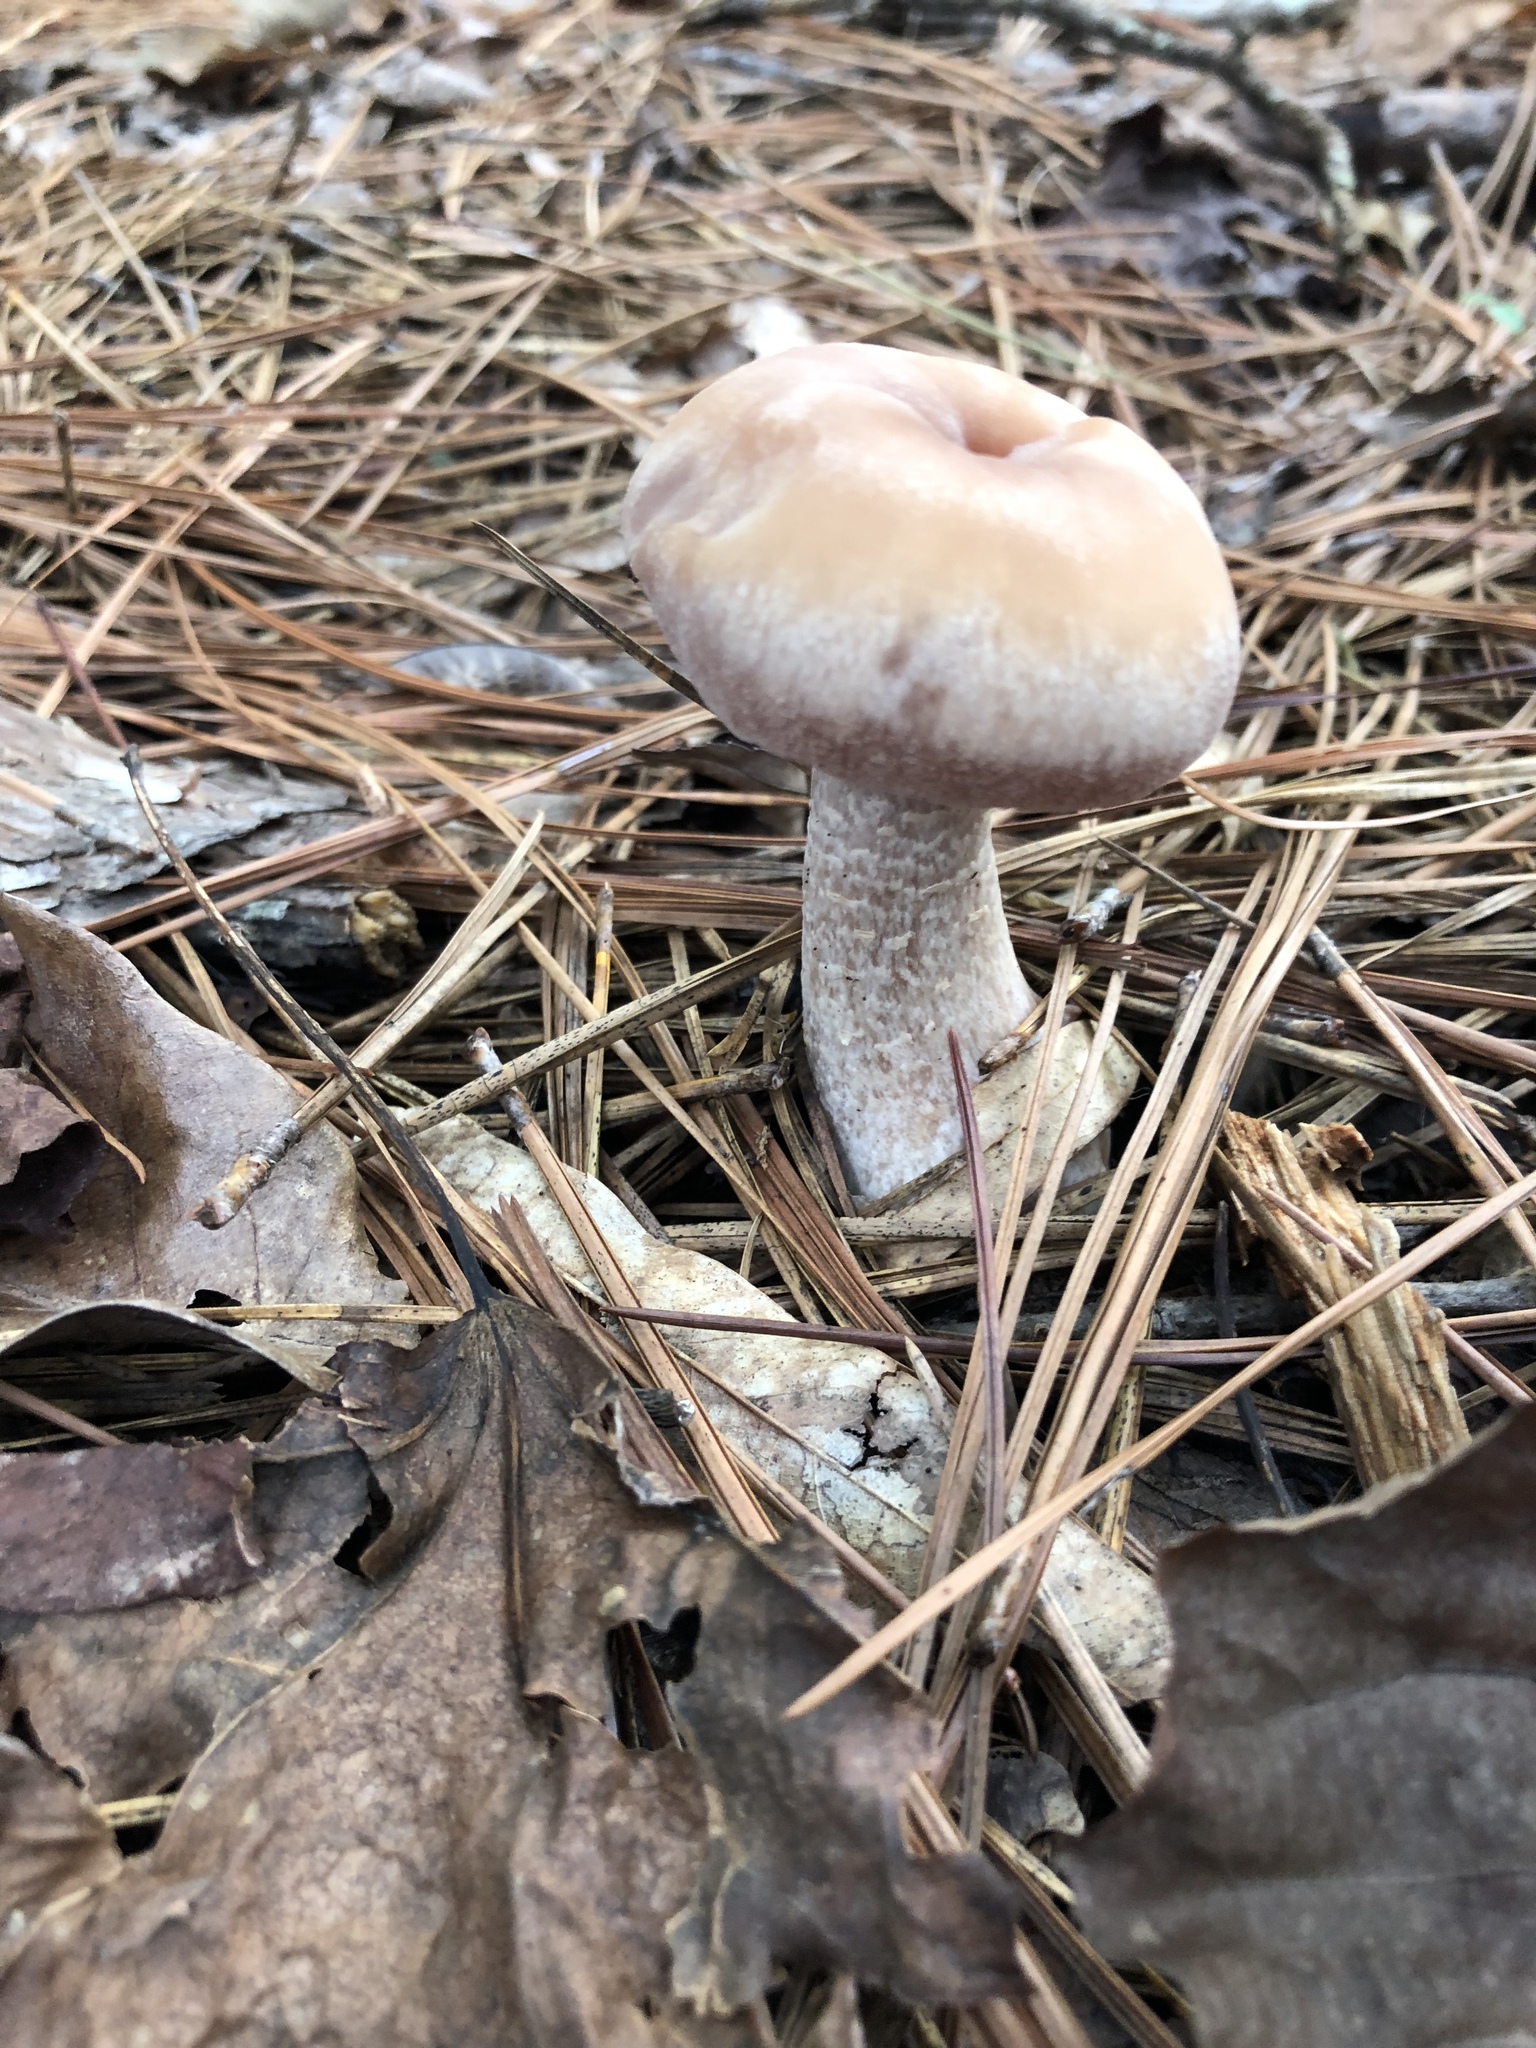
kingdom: Fungi
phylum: Basidiomycota
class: Agaricomycetes
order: Agaricales
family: Hydnangiaceae
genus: Laccaria
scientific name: Laccaria ochropurpurea
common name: Purple laccaria
